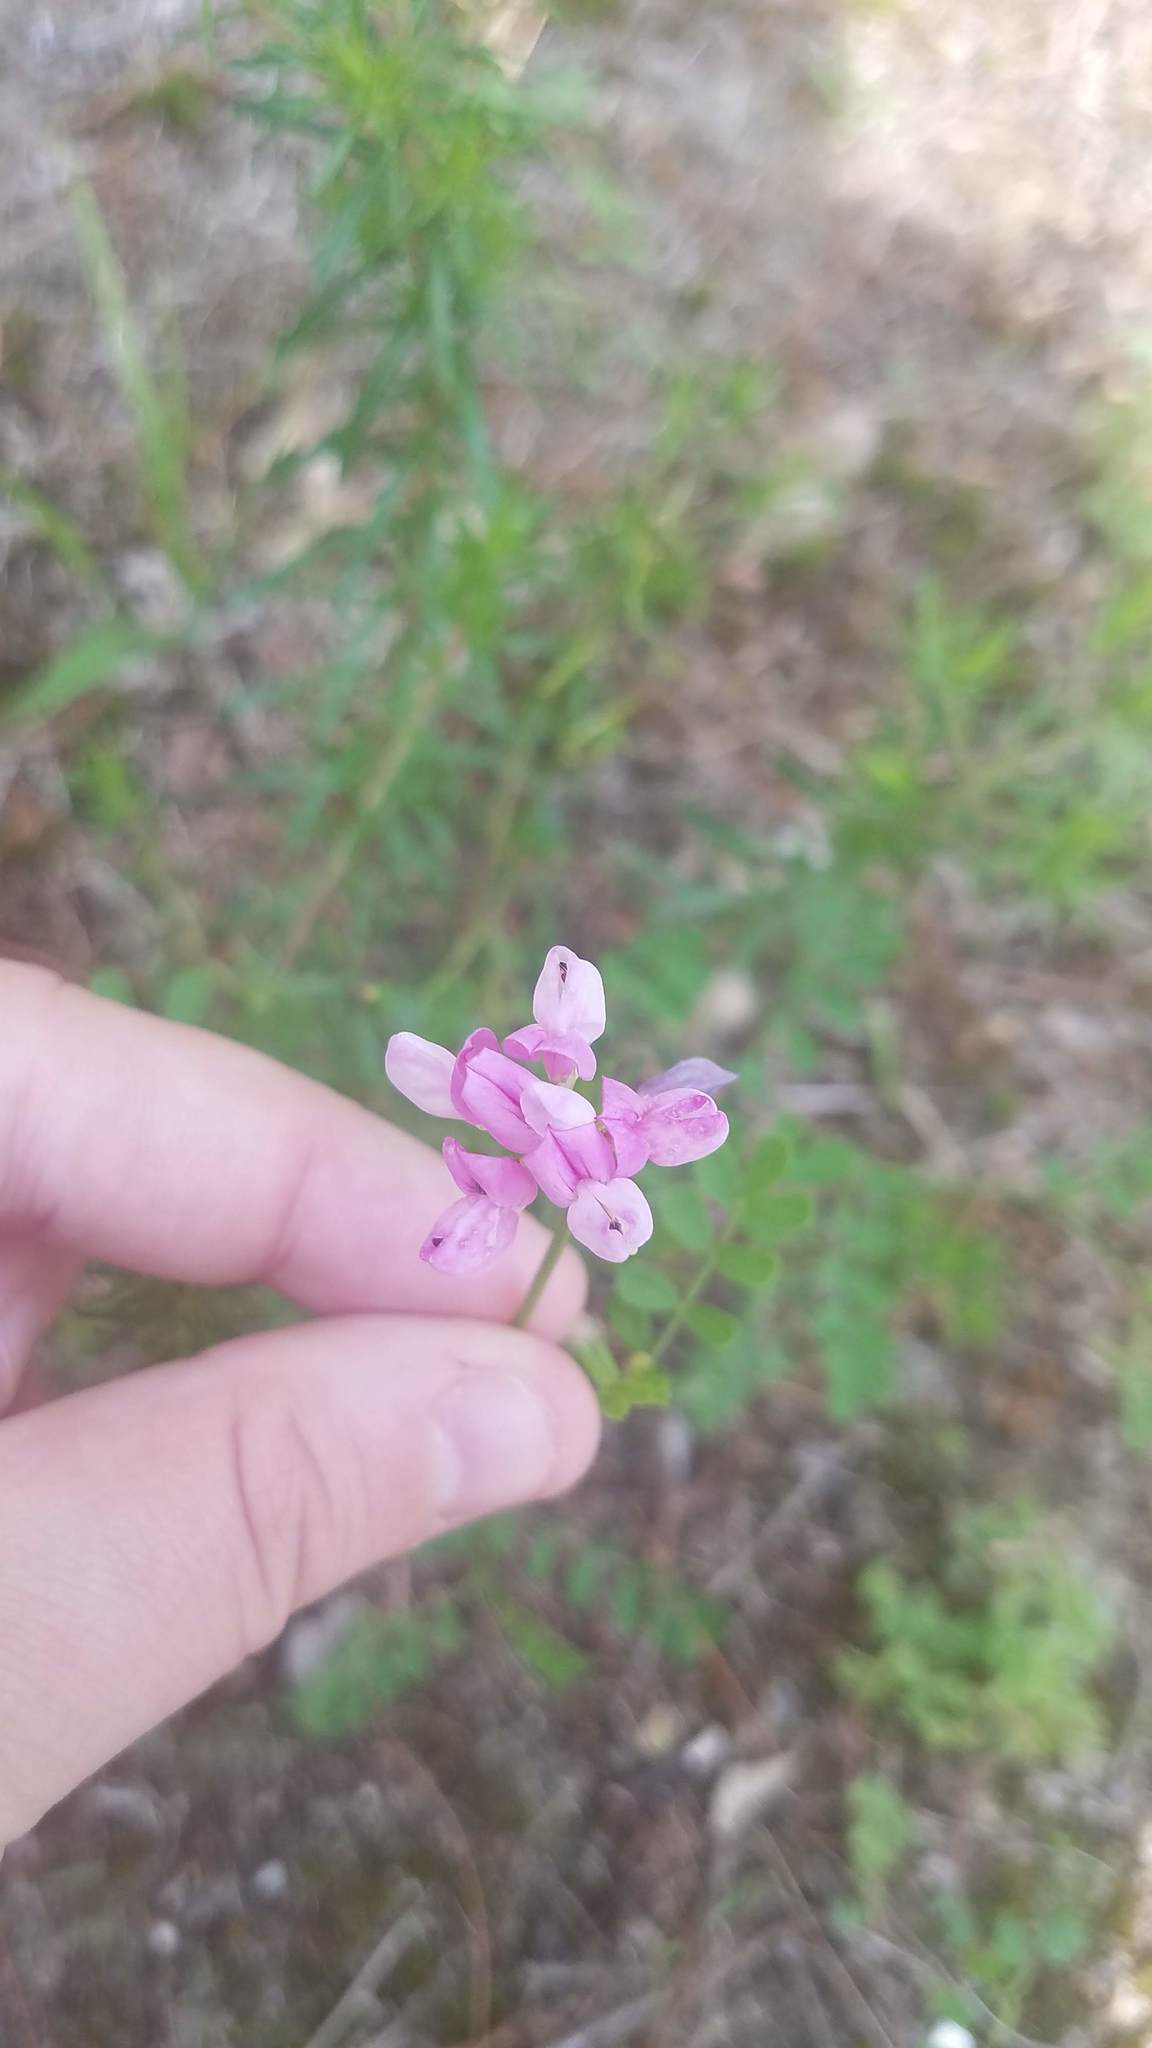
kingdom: Plantae
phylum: Tracheophyta
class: Magnoliopsida
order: Fabales
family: Fabaceae
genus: Coronilla
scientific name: Coronilla varia
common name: Crownvetch
